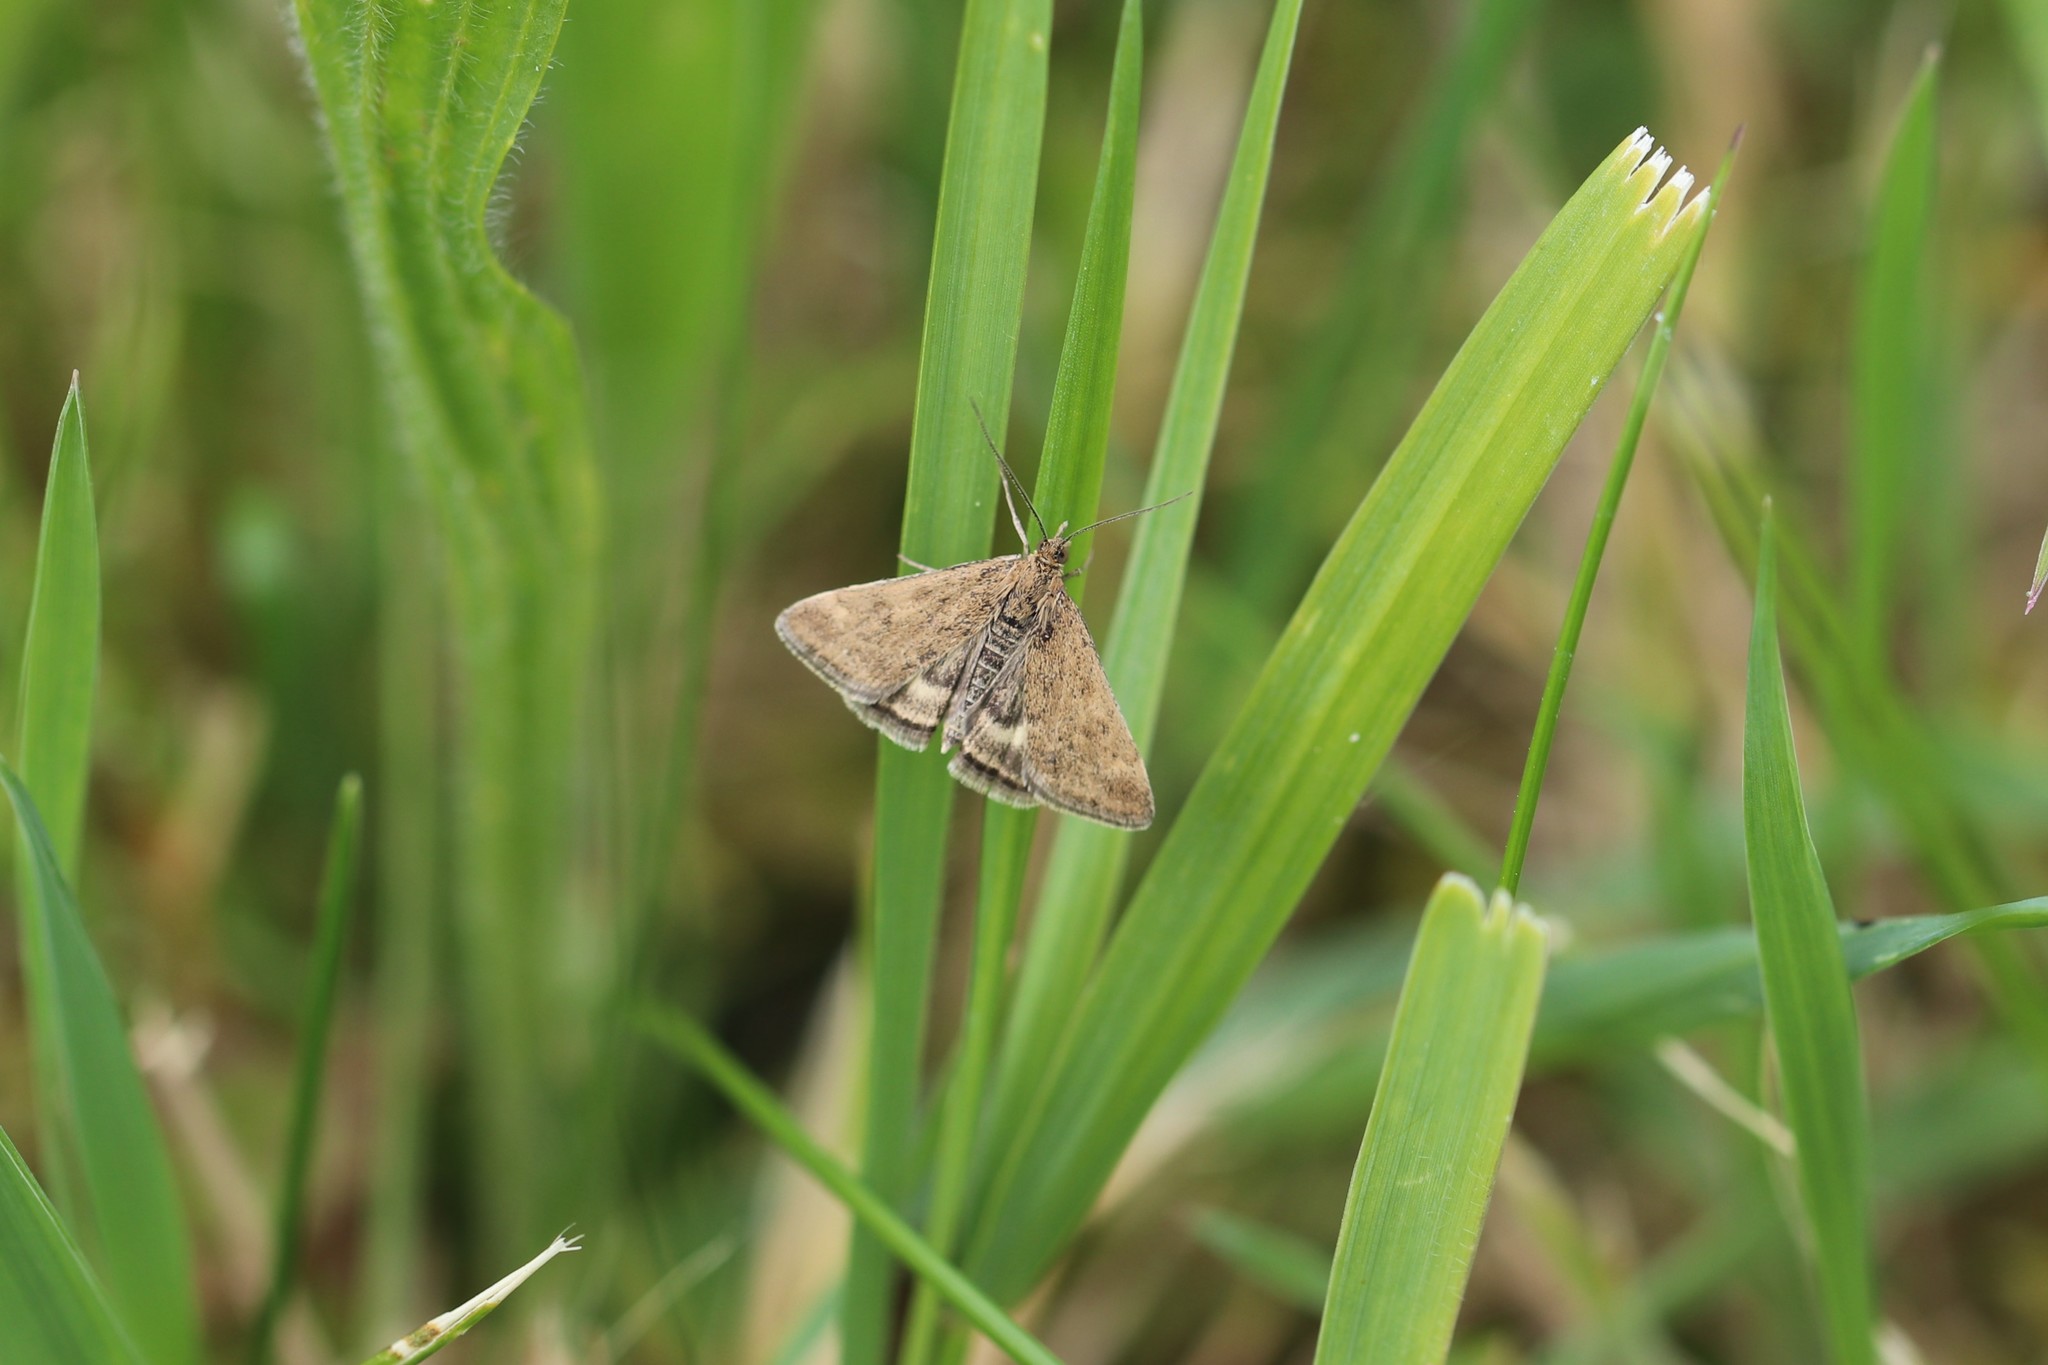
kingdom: Animalia
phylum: Arthropoda
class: Insecta
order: Lepidoptera
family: Crambidae
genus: Pyrausta
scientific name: Pyrausta despicata
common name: Straw-barred pearl
